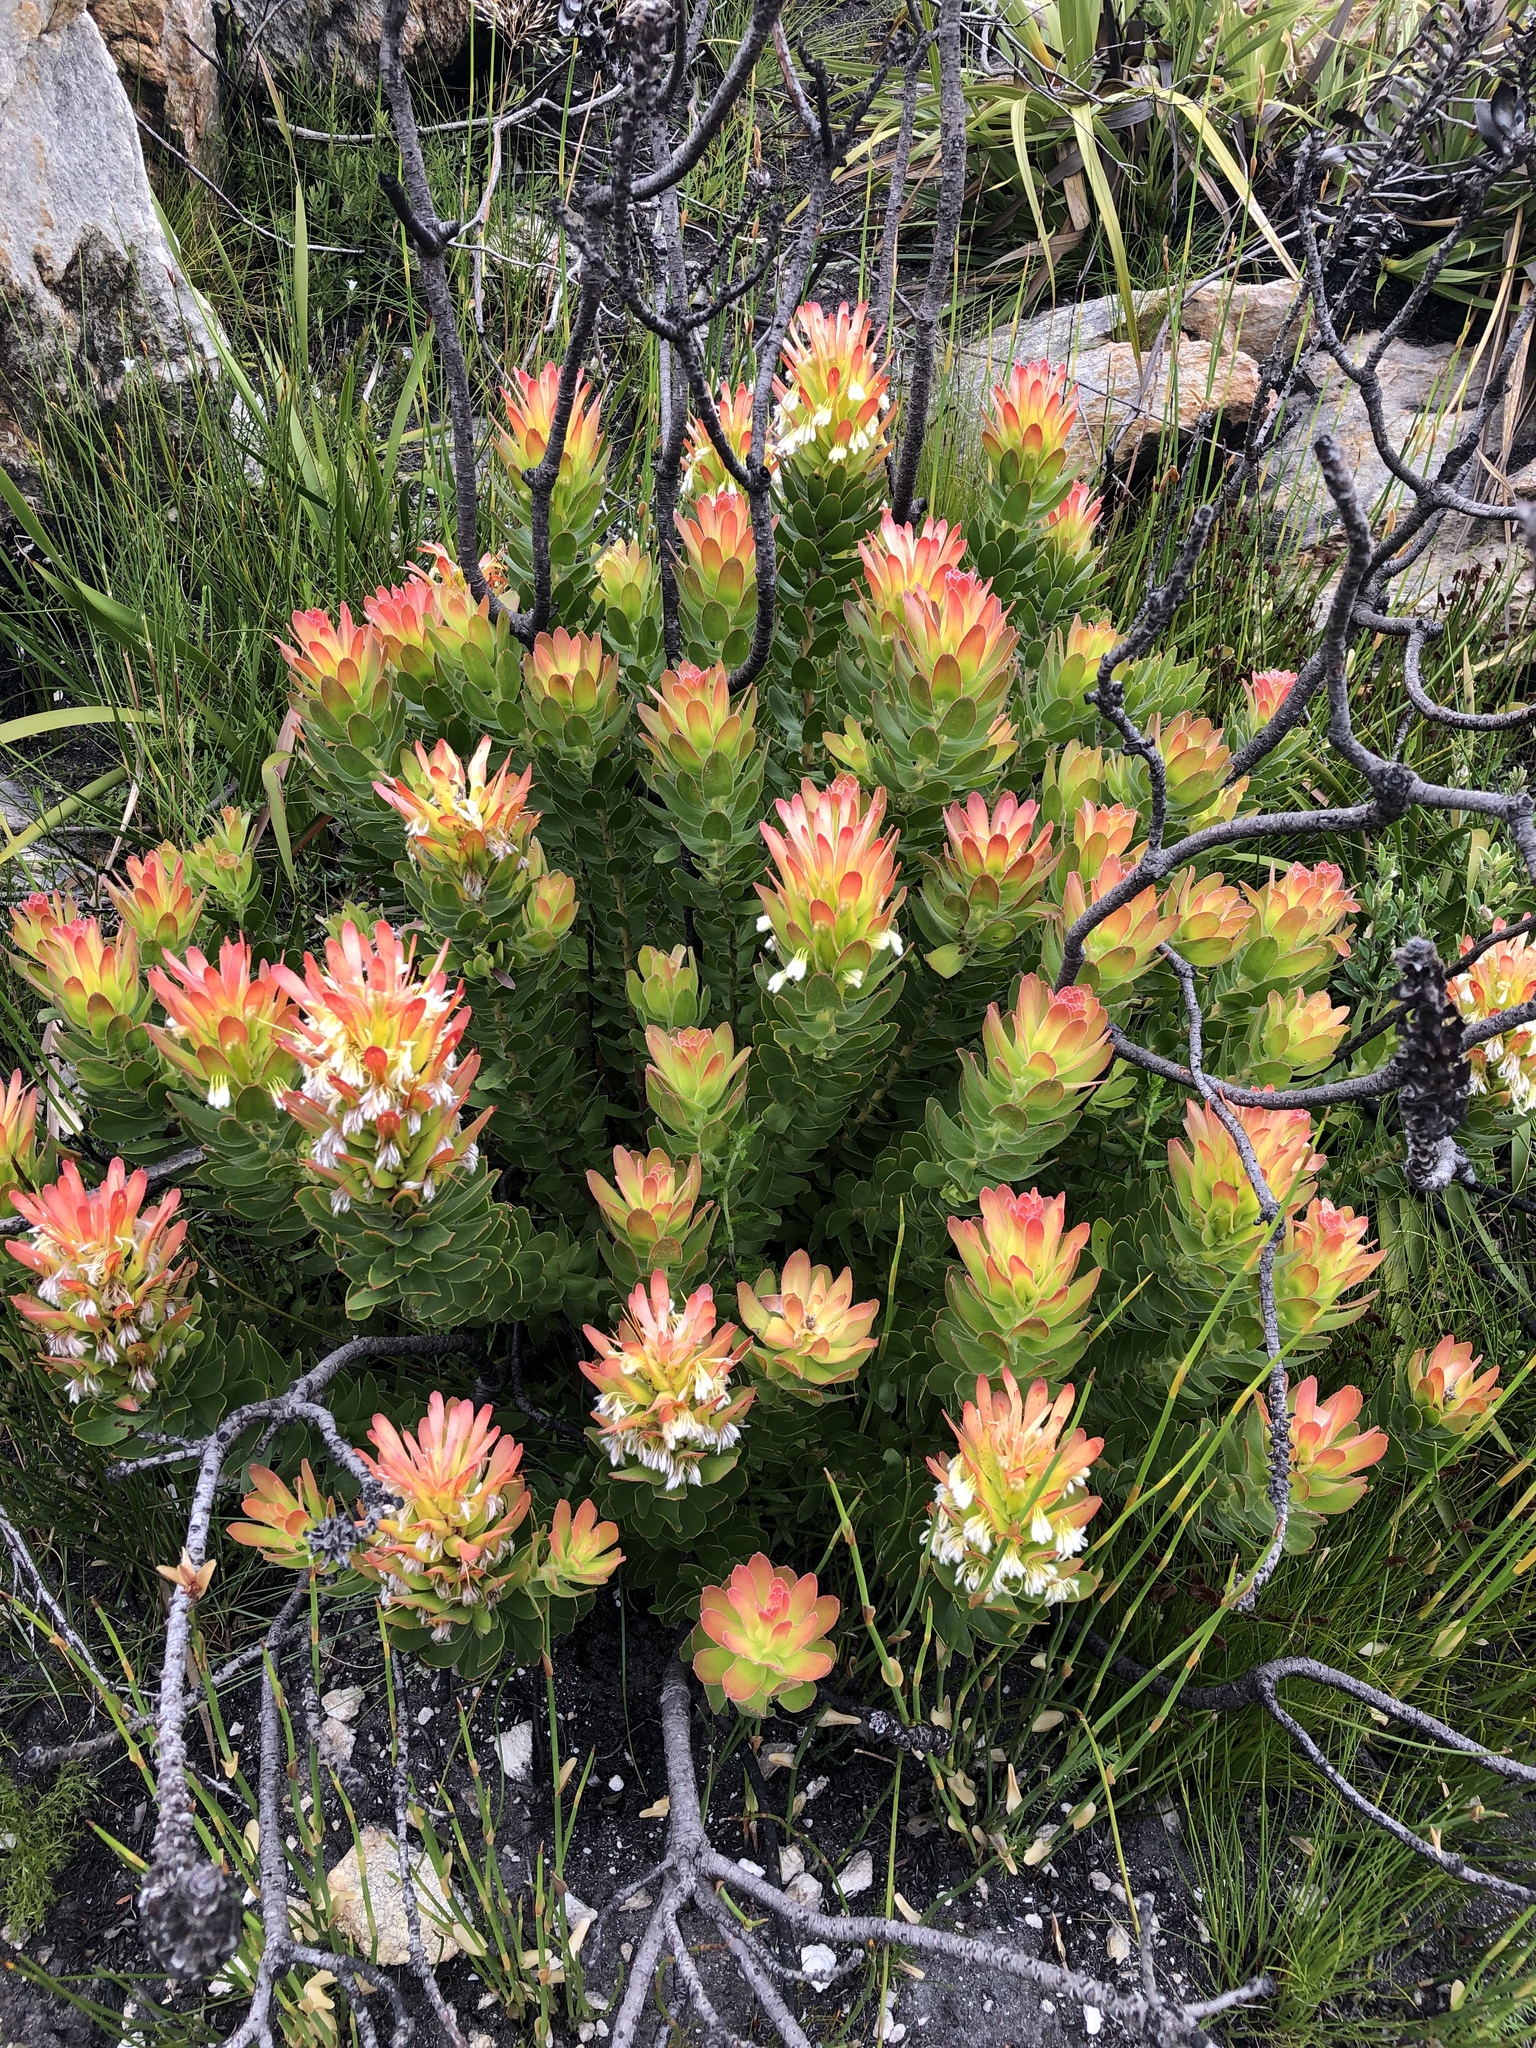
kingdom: Plantae
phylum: Tracheophyta
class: Magnoliopsida
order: Proteales
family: Proteaceae
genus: Mimetes
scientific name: Mimetes cucullatus
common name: Common pagoda
